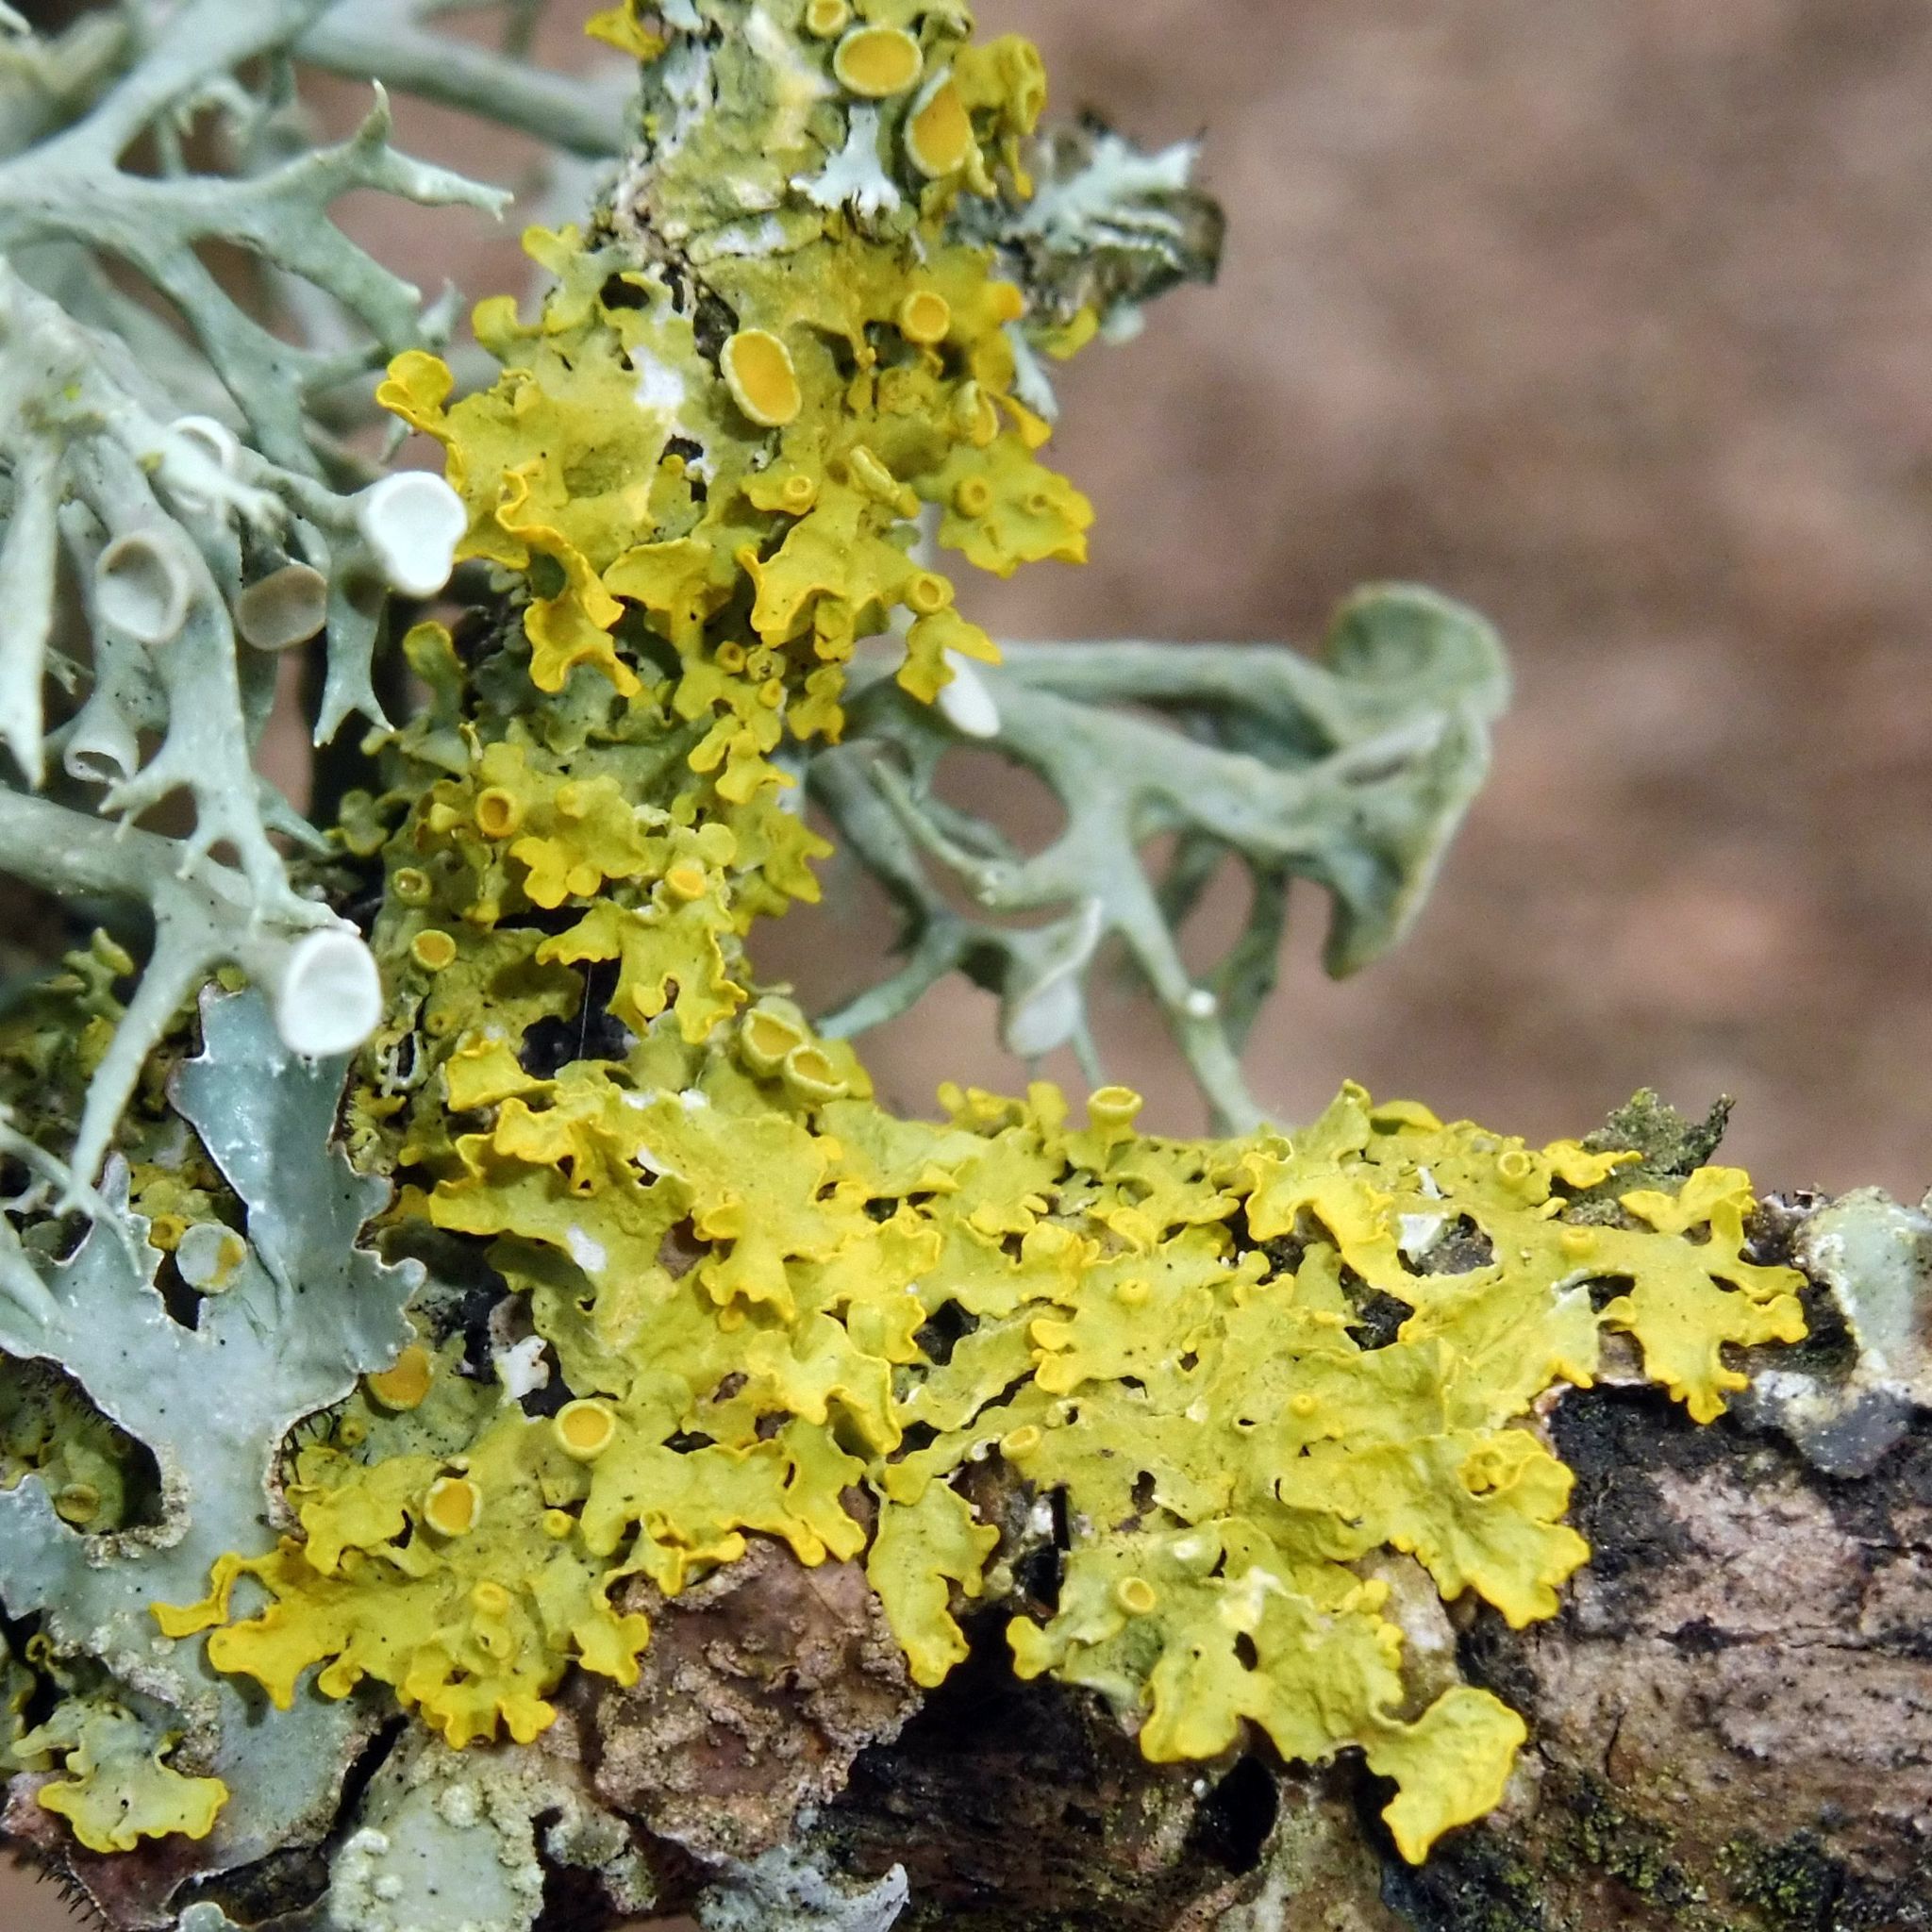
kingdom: Fungi
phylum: Ascomycota
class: Lecanoromycetes
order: Teloschistales
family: Teloschistaceae
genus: Xanthoria
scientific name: Xanthoria parietina
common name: Common orange lichen
